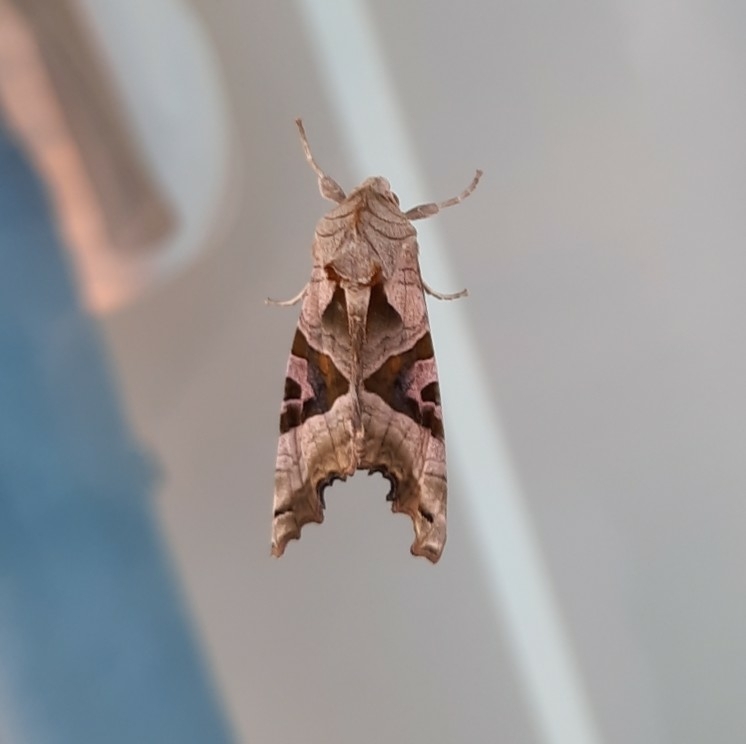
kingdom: Animalia
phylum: Arthropoda
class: Insecta
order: Lepidoptera
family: Noctuidae
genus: Phlogophora
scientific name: Phlogophora meticulosa
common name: Angle shades
